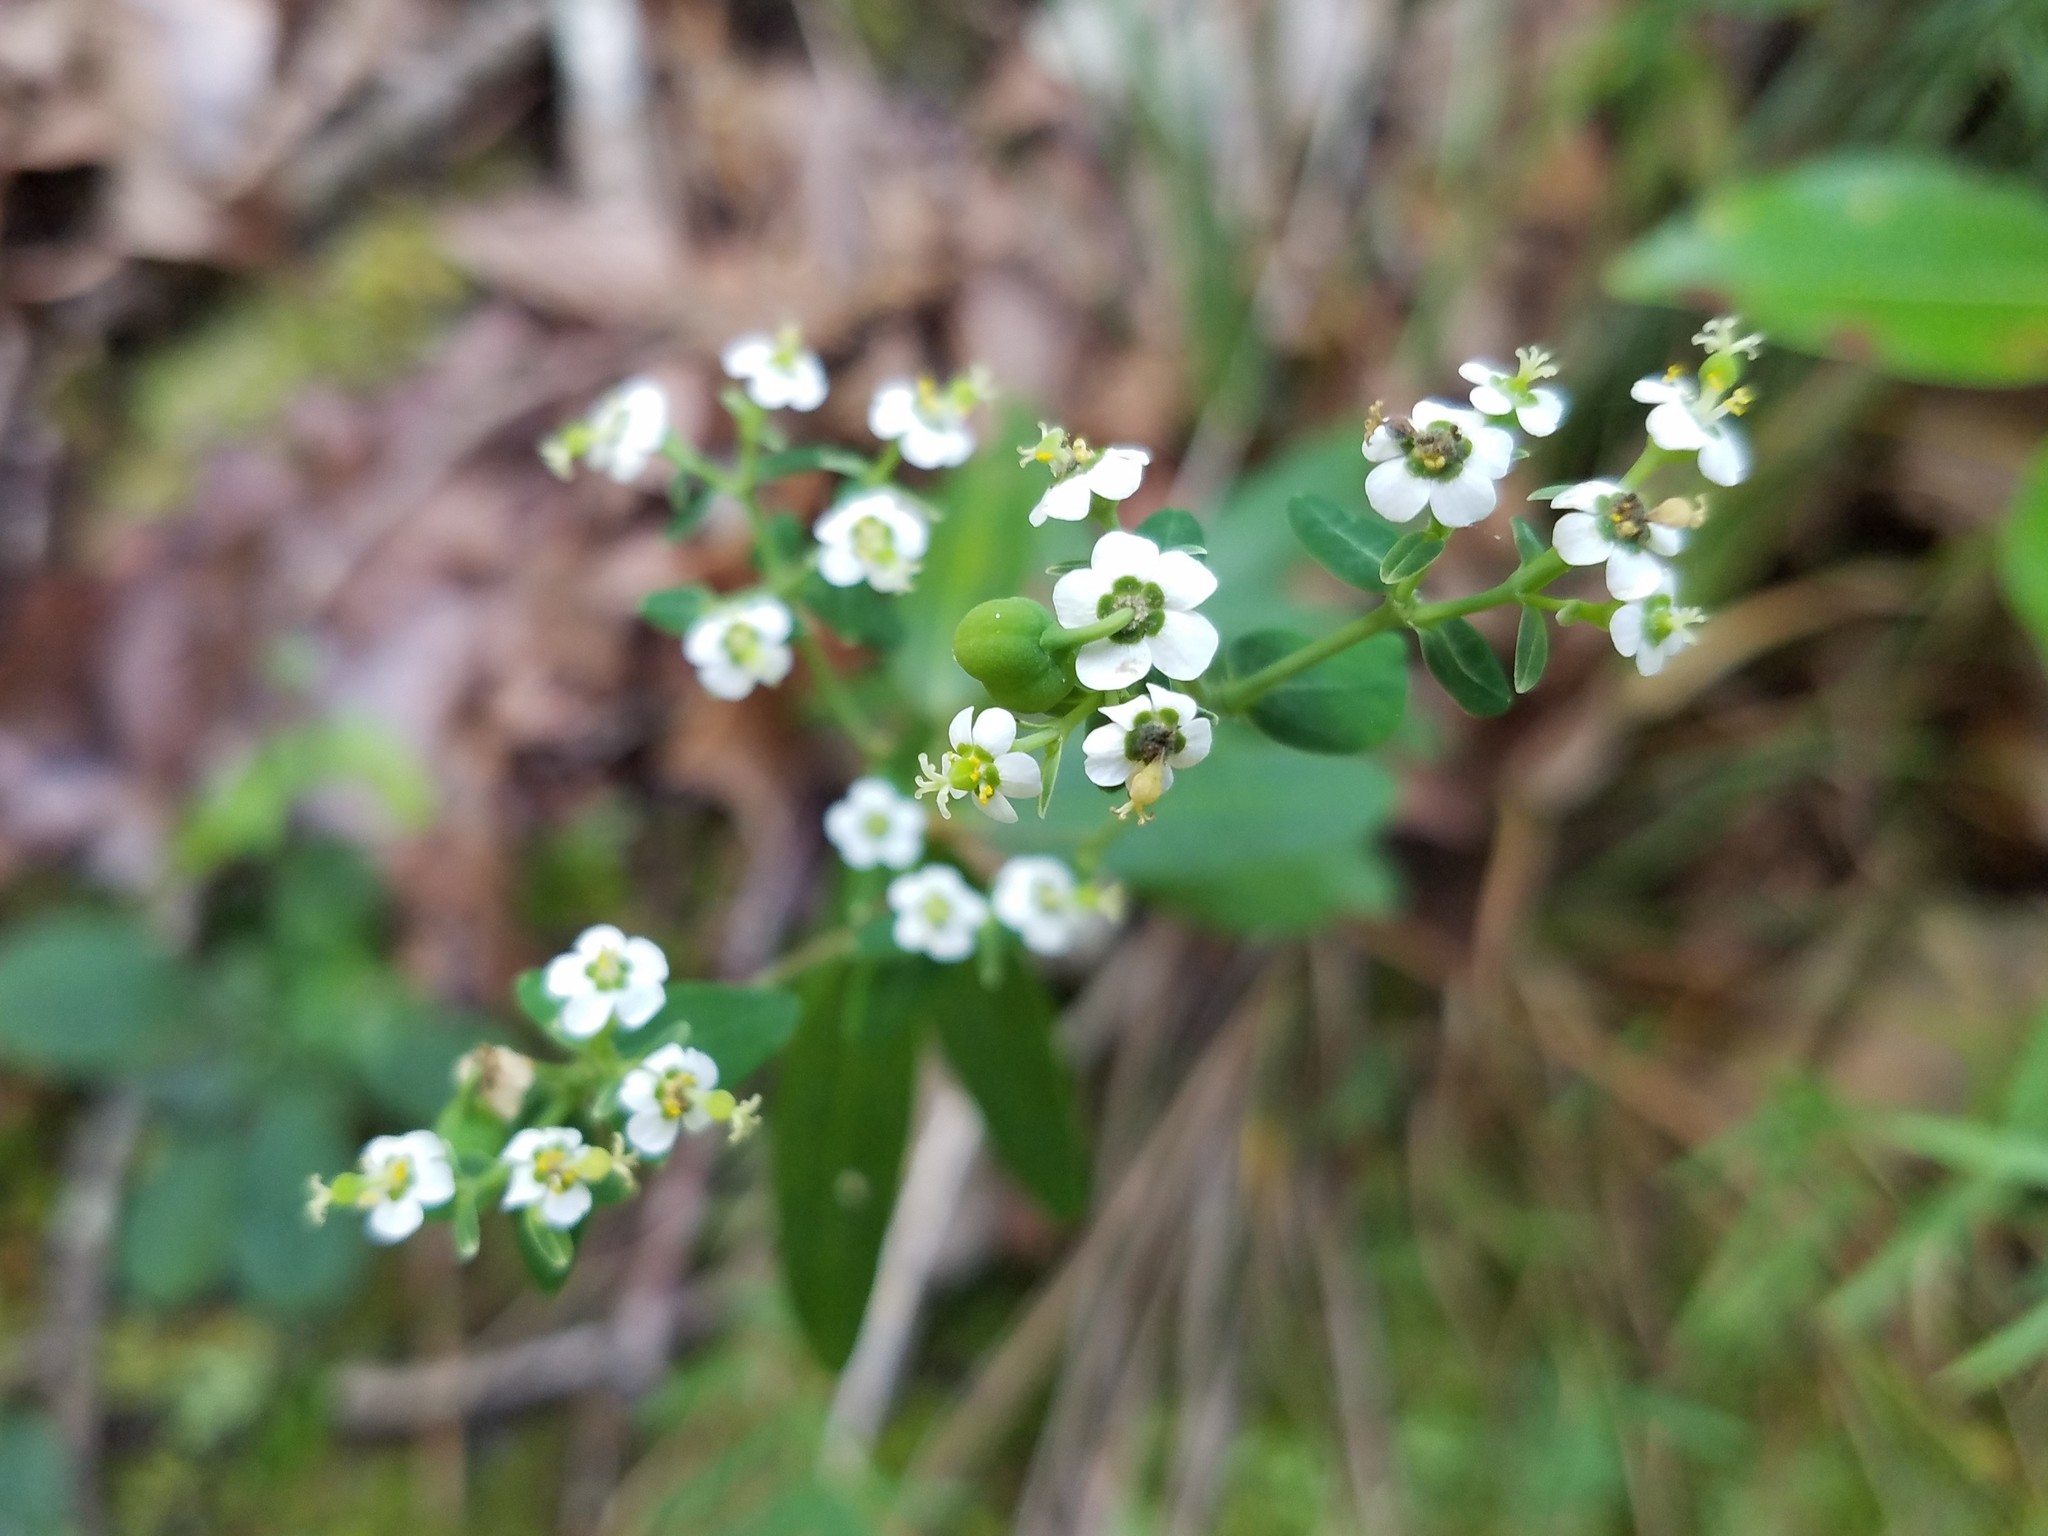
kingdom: Plantae
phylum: Tracheophyta
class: Magnoliopsida
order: Malpighiales
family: Euphorbiaceae
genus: Euphorbia
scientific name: Euphorbia corollata
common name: Flowering spurge
